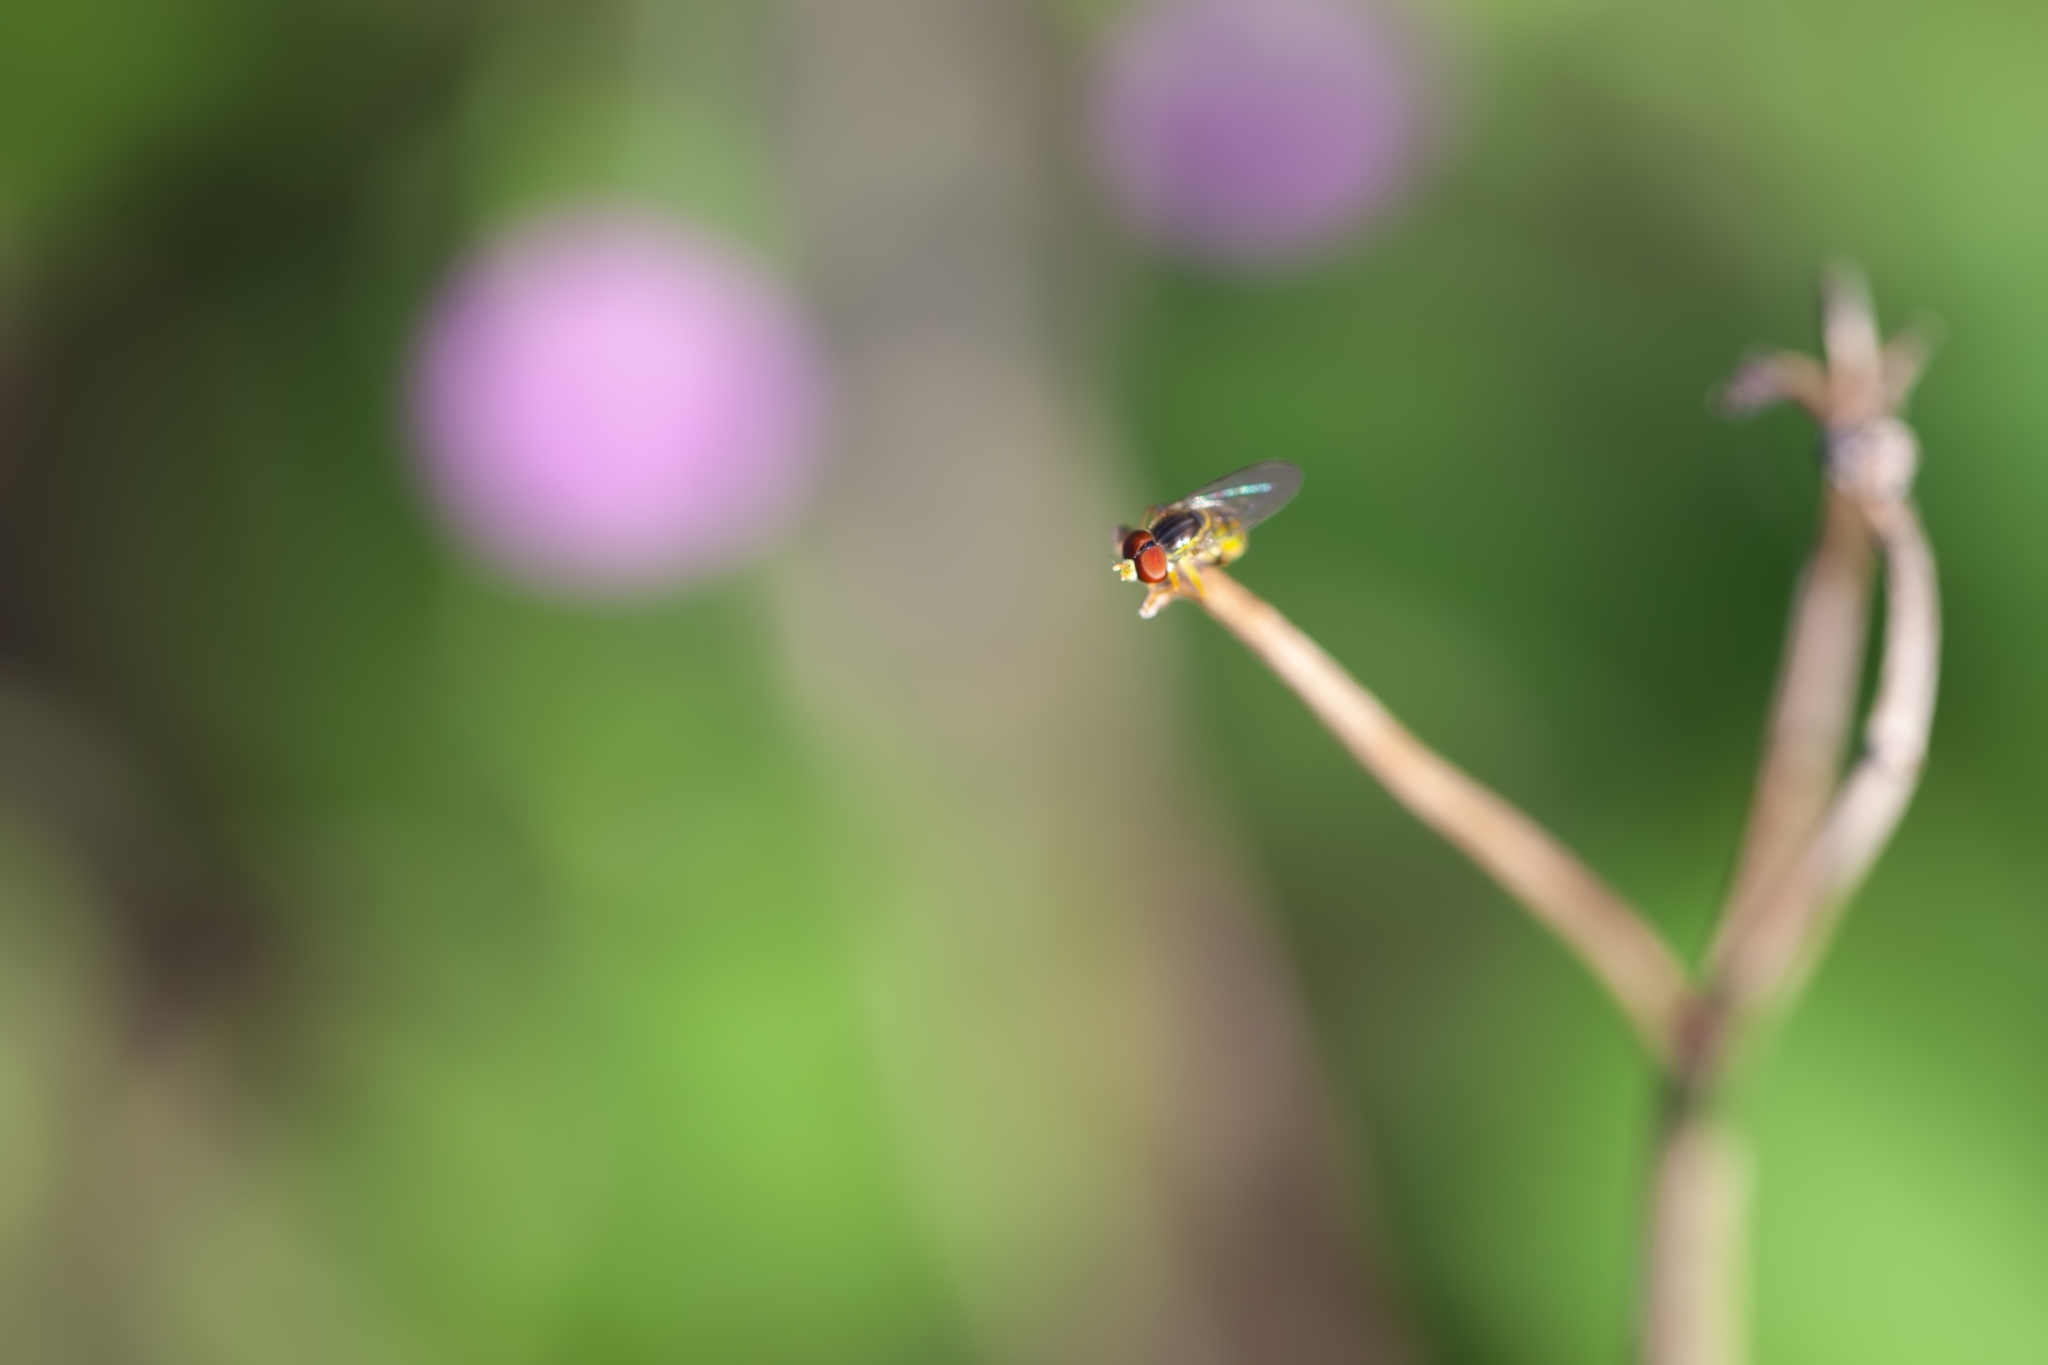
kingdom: Animalia
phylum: Arthropoda
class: Insecta
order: Diptera
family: Syrphidae
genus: Toxomerus
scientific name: Toxomerus
